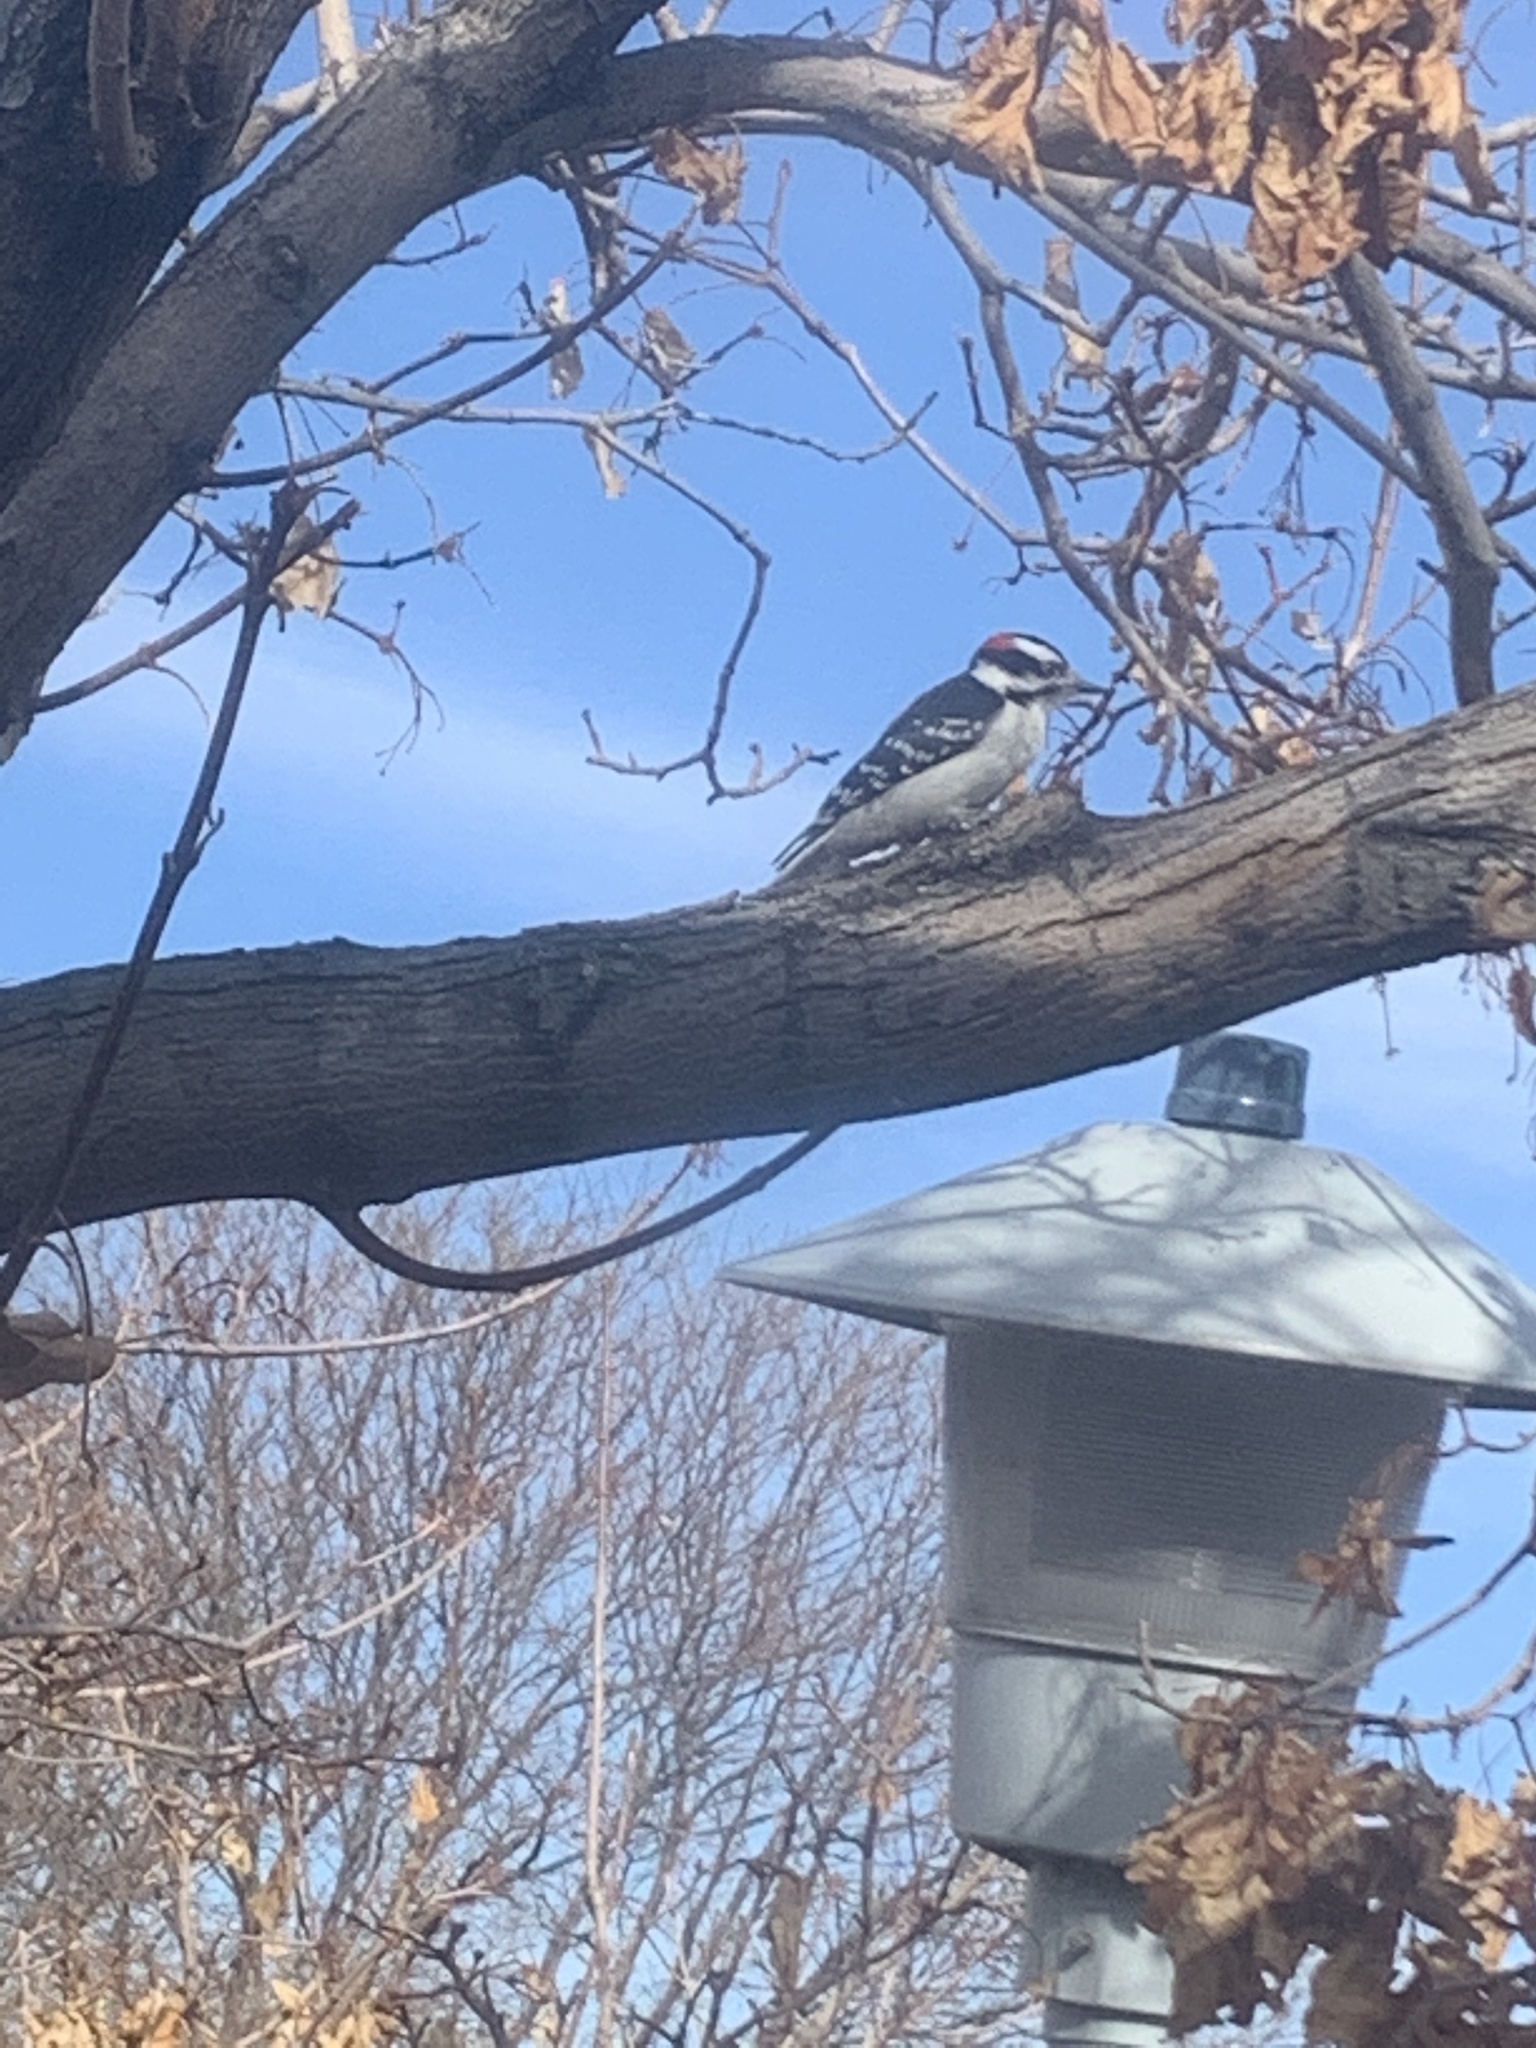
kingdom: Animalia
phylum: Chordata
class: Aves
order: Piciformes
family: Picidae
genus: Dryobates
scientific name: Dryobates pubescens
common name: Downy woodpecker
